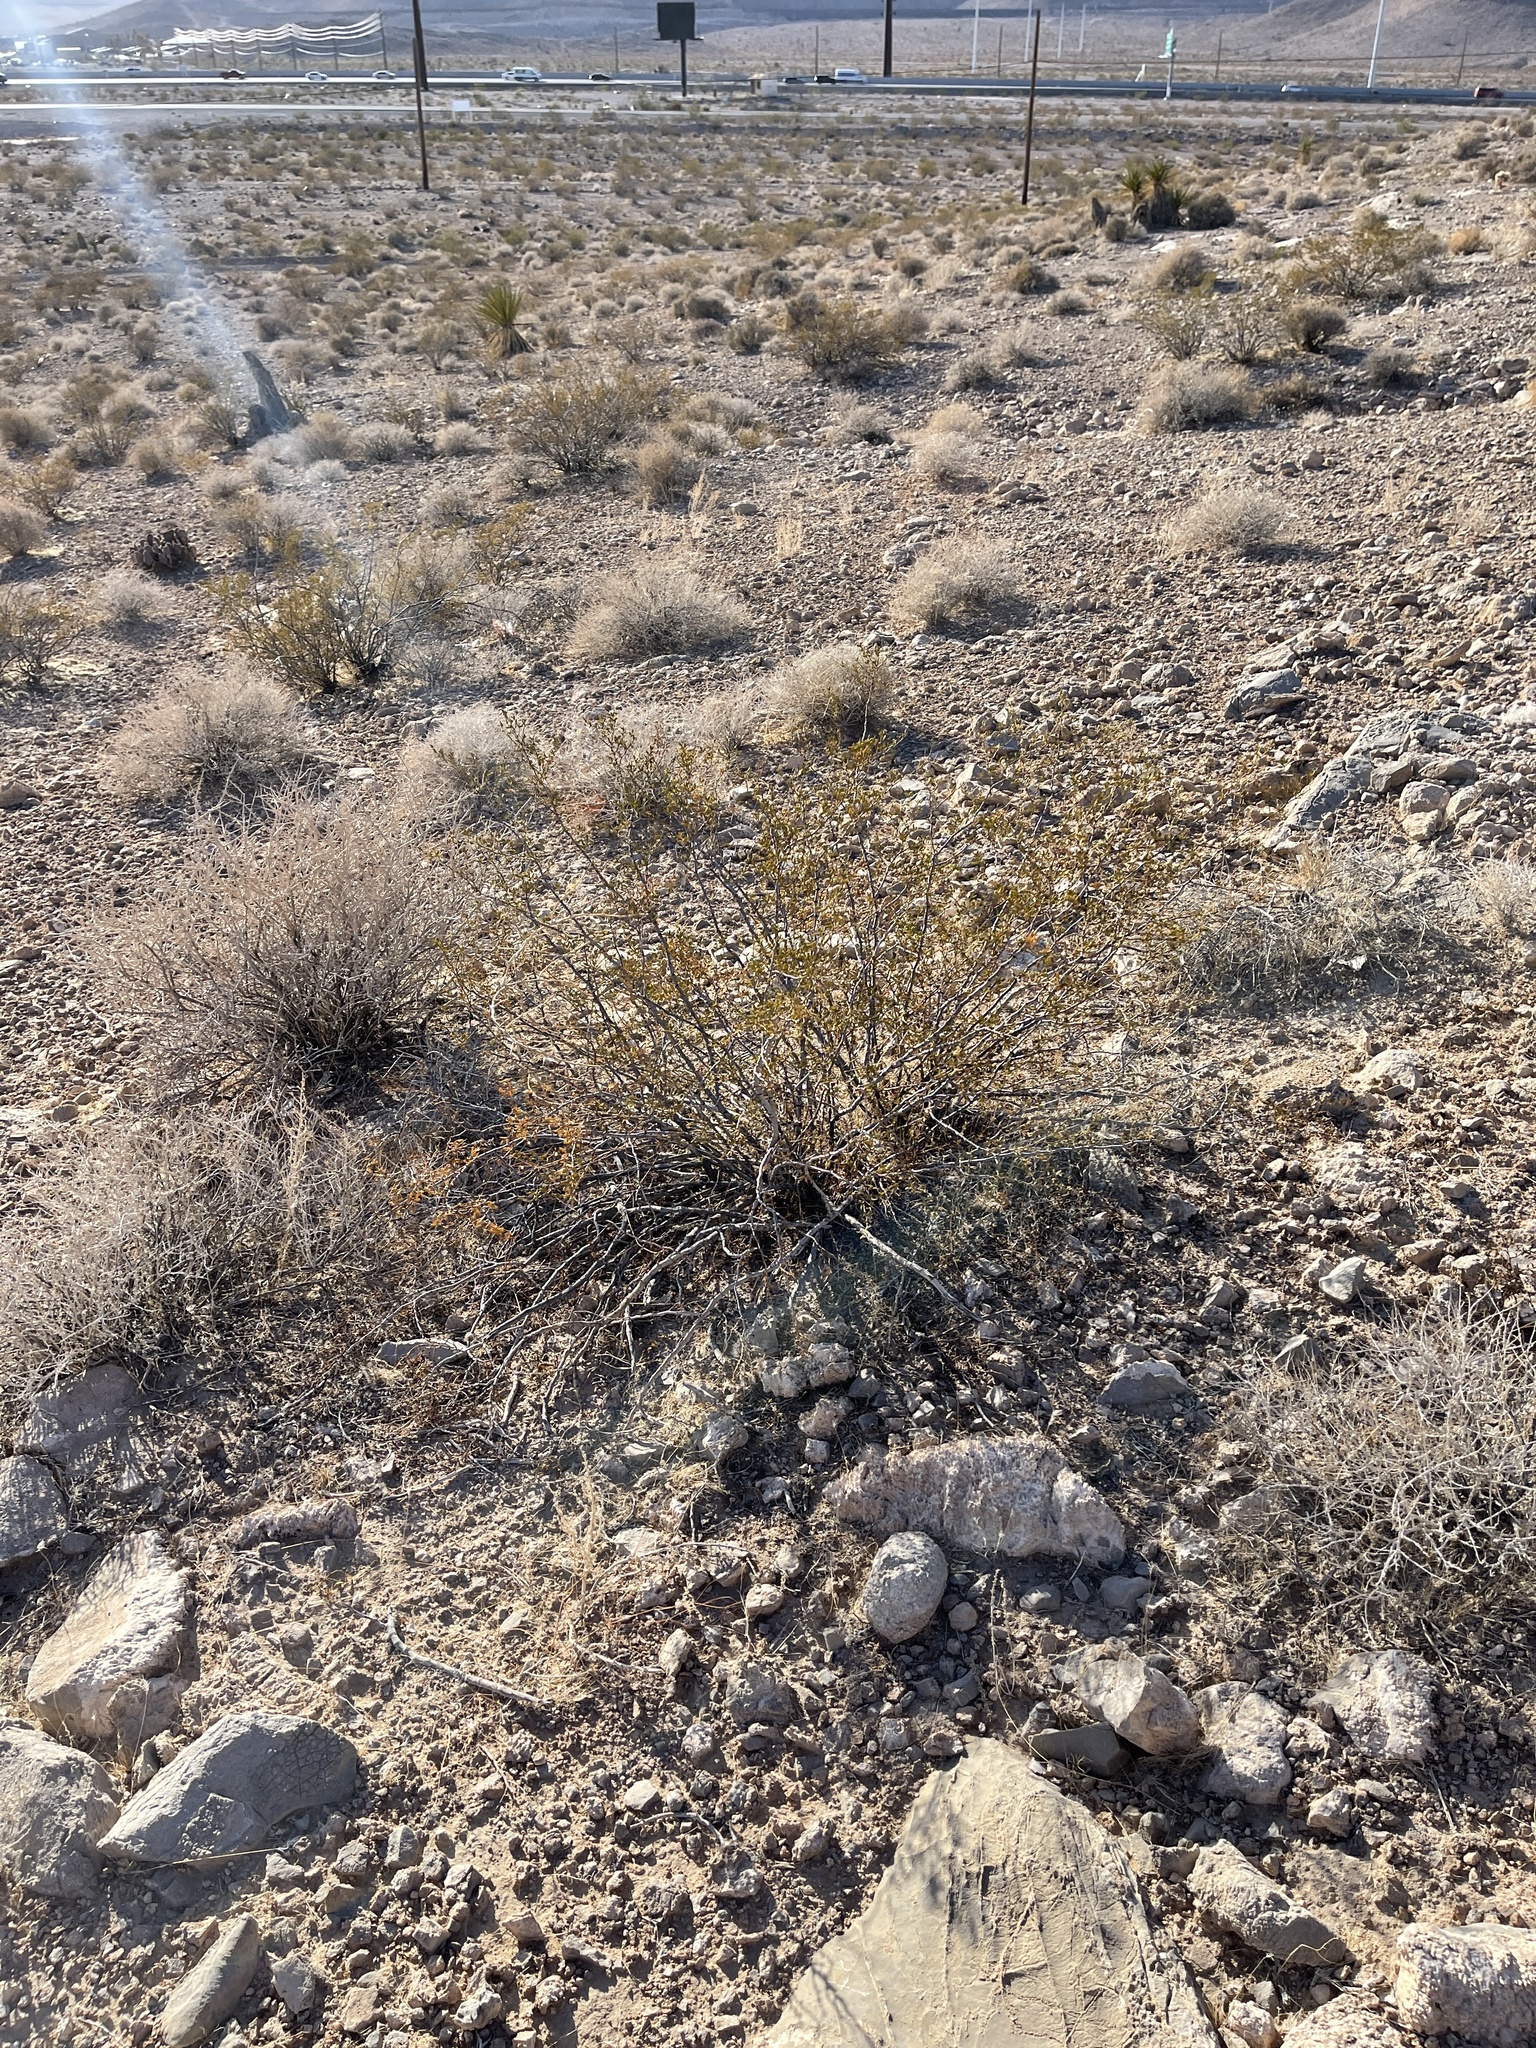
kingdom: Plantae
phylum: Tracheophyta
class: Magnoliopsida
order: Zygophyllales
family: Zygophyllaceae
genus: Larrea
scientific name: Larrea tridentata
